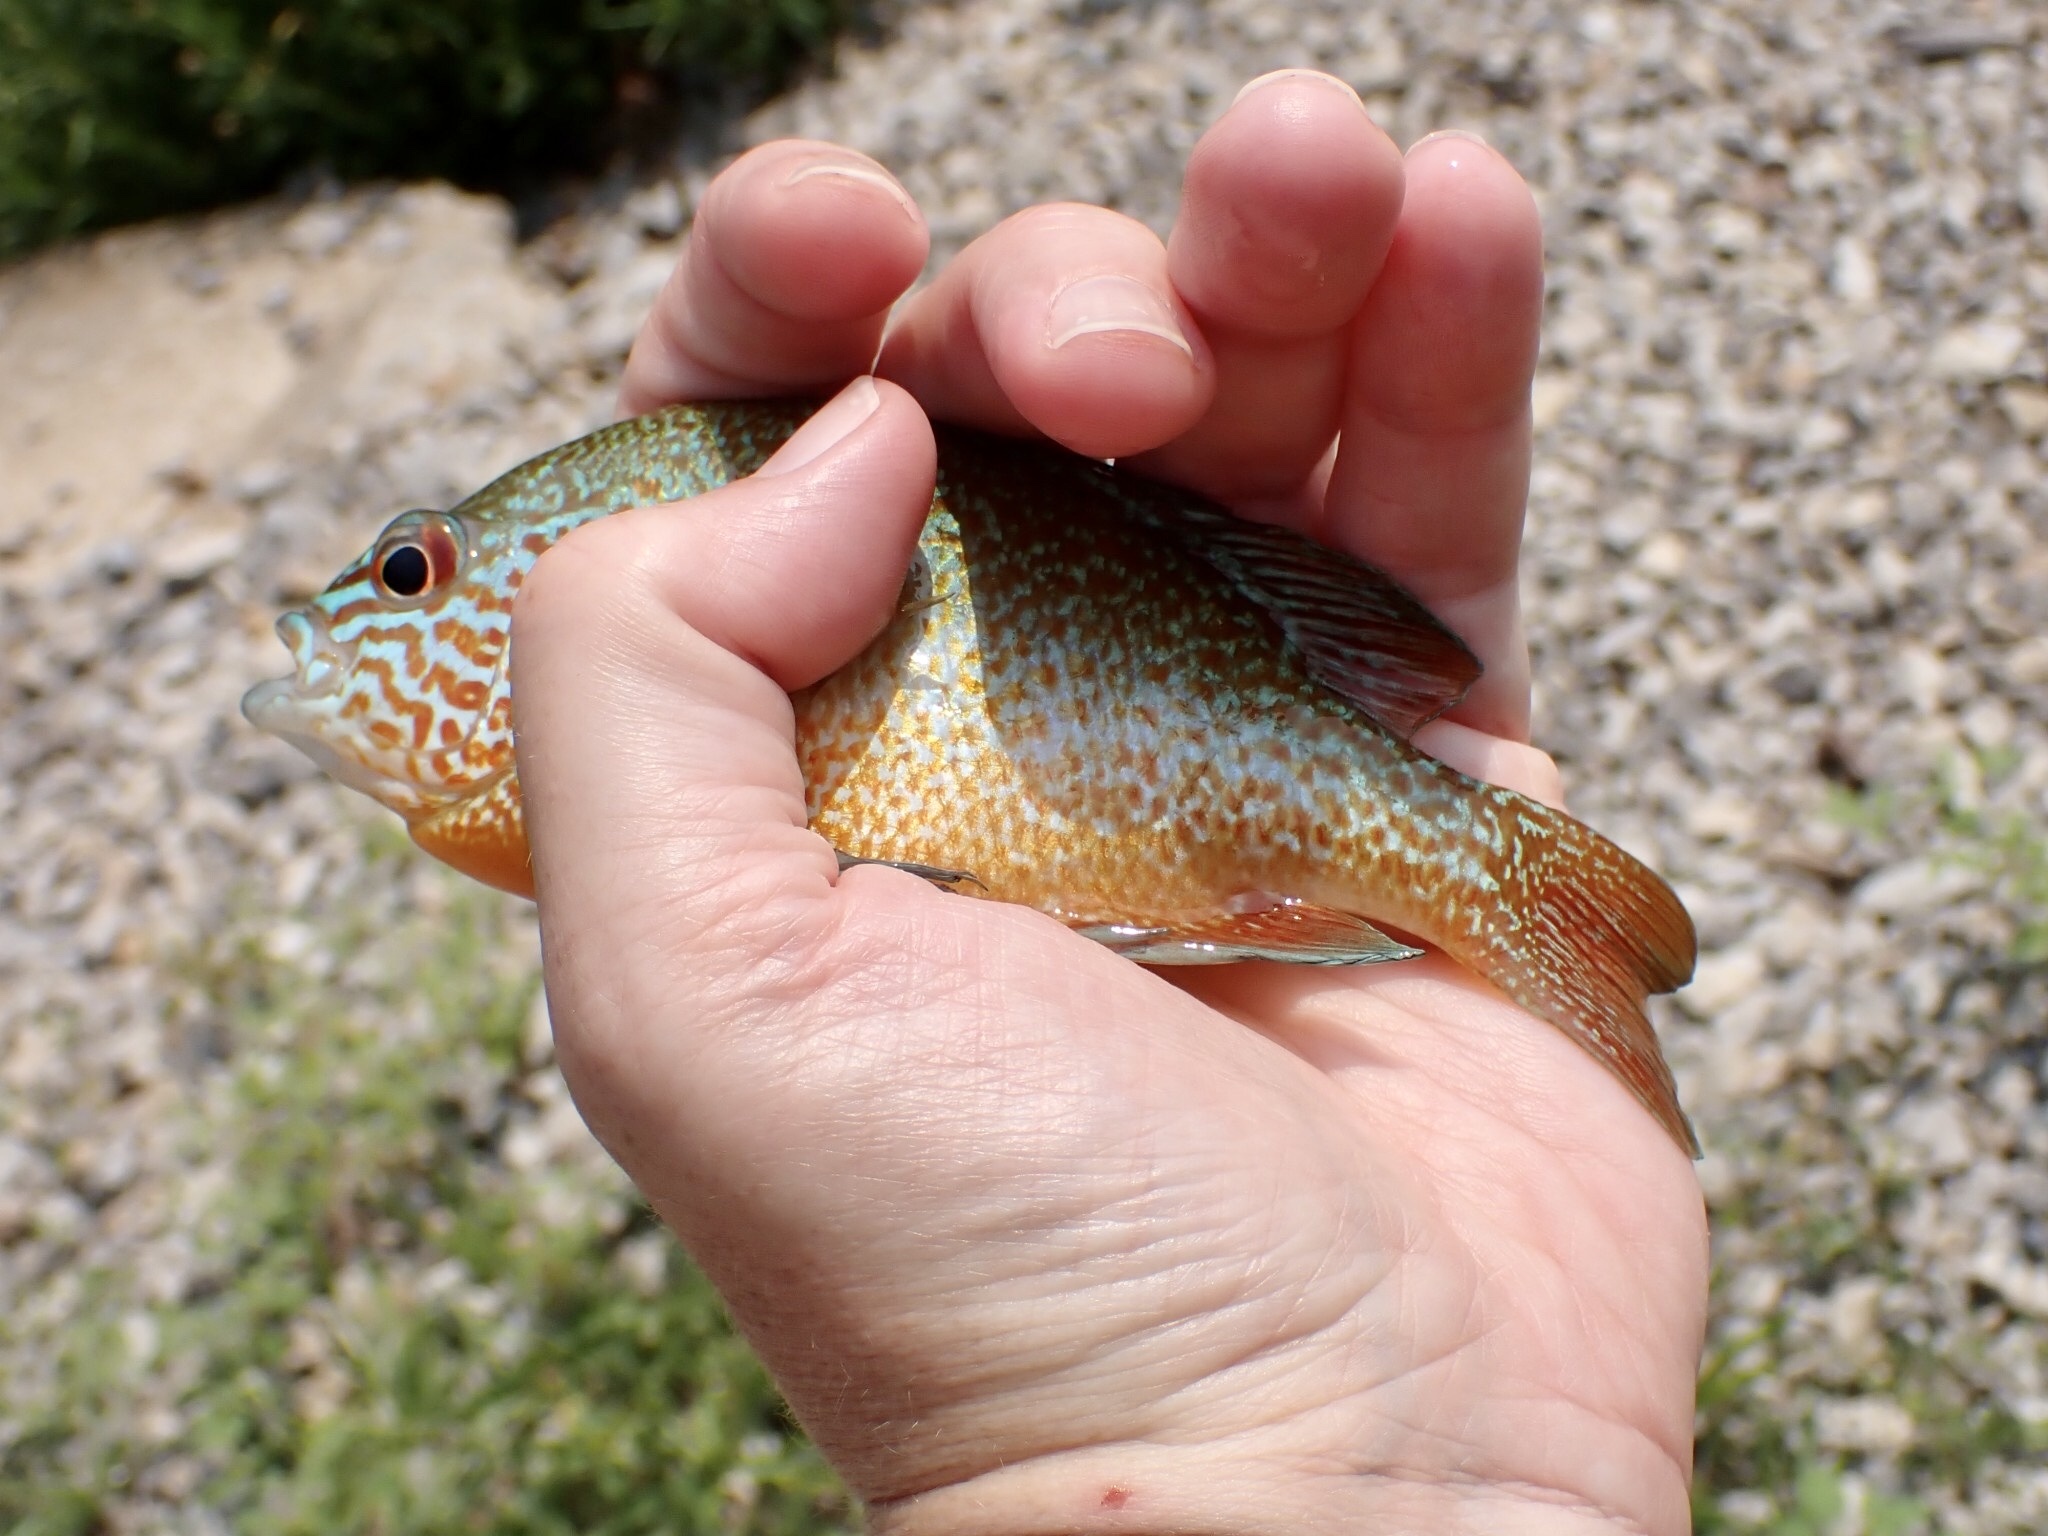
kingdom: Animalia
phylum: Chordata
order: Perciformes
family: Centrarchidae
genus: Lepomis
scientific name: Lepomis megalotis
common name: Longear sunfish
